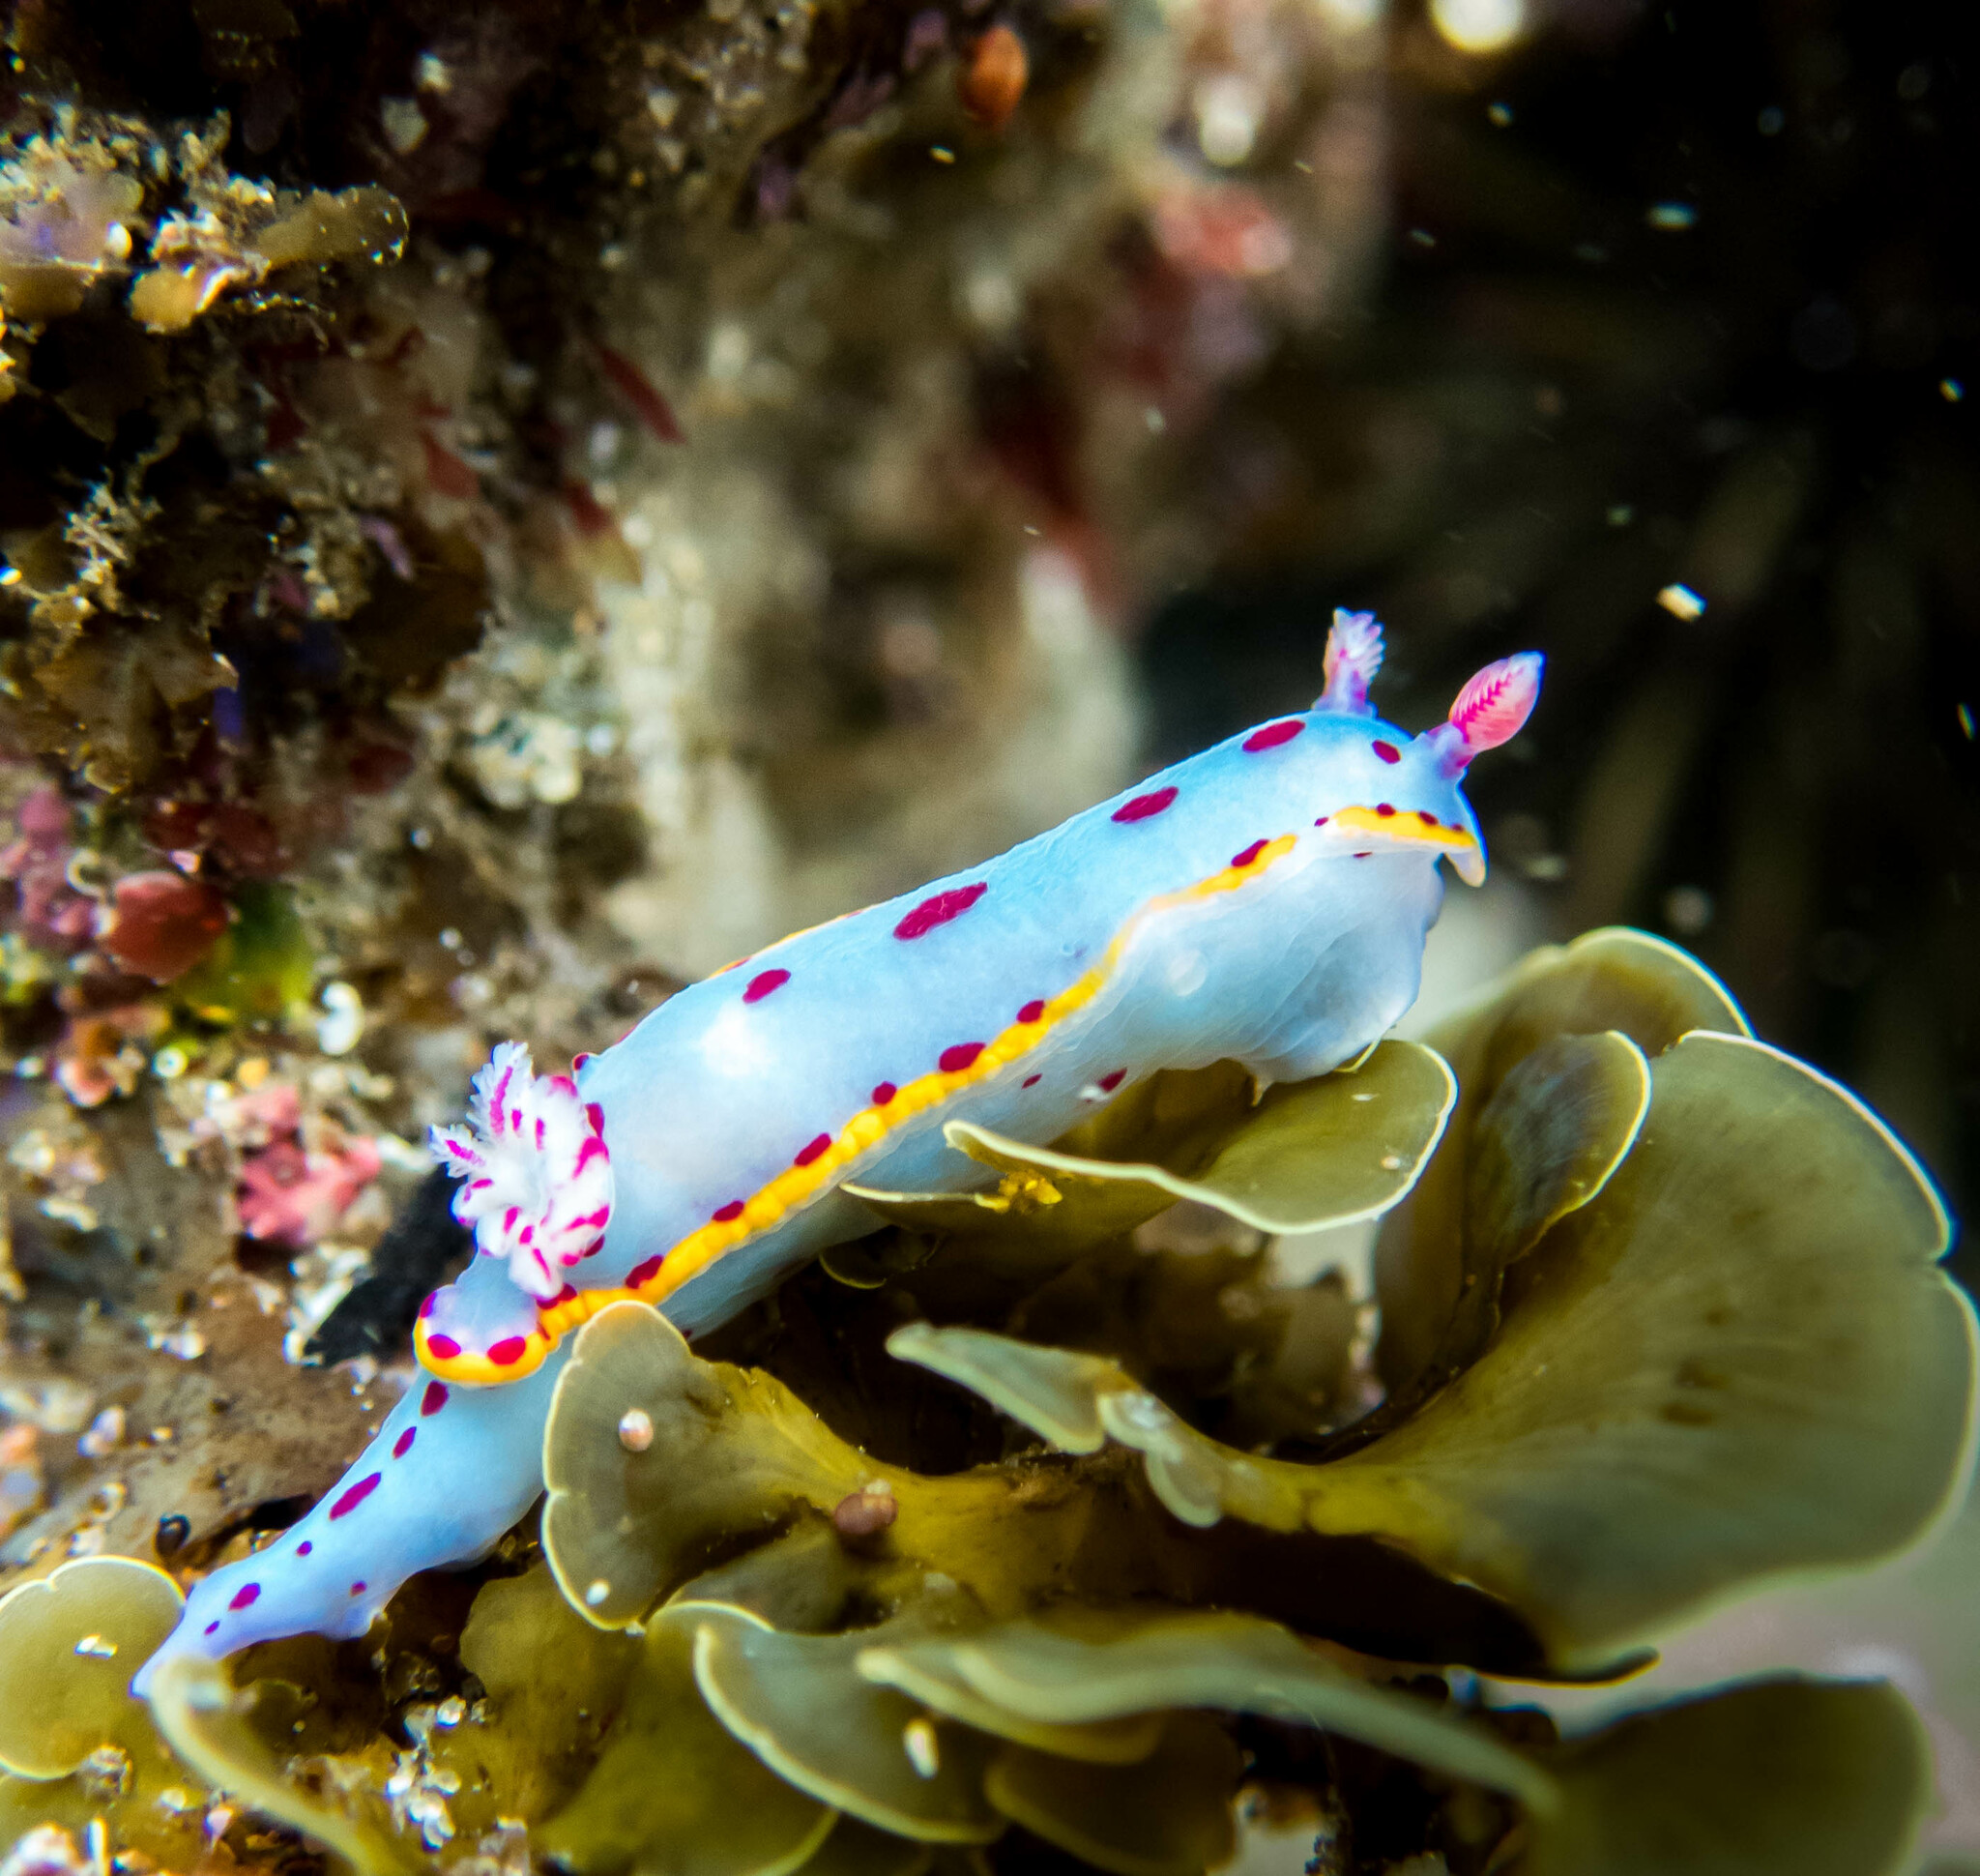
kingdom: Animalia
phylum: Mollusca
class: Gastropoda
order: Nudibranchia
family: Chromodorididae
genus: Hypselodoris
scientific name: Hypselodoris bennetti
